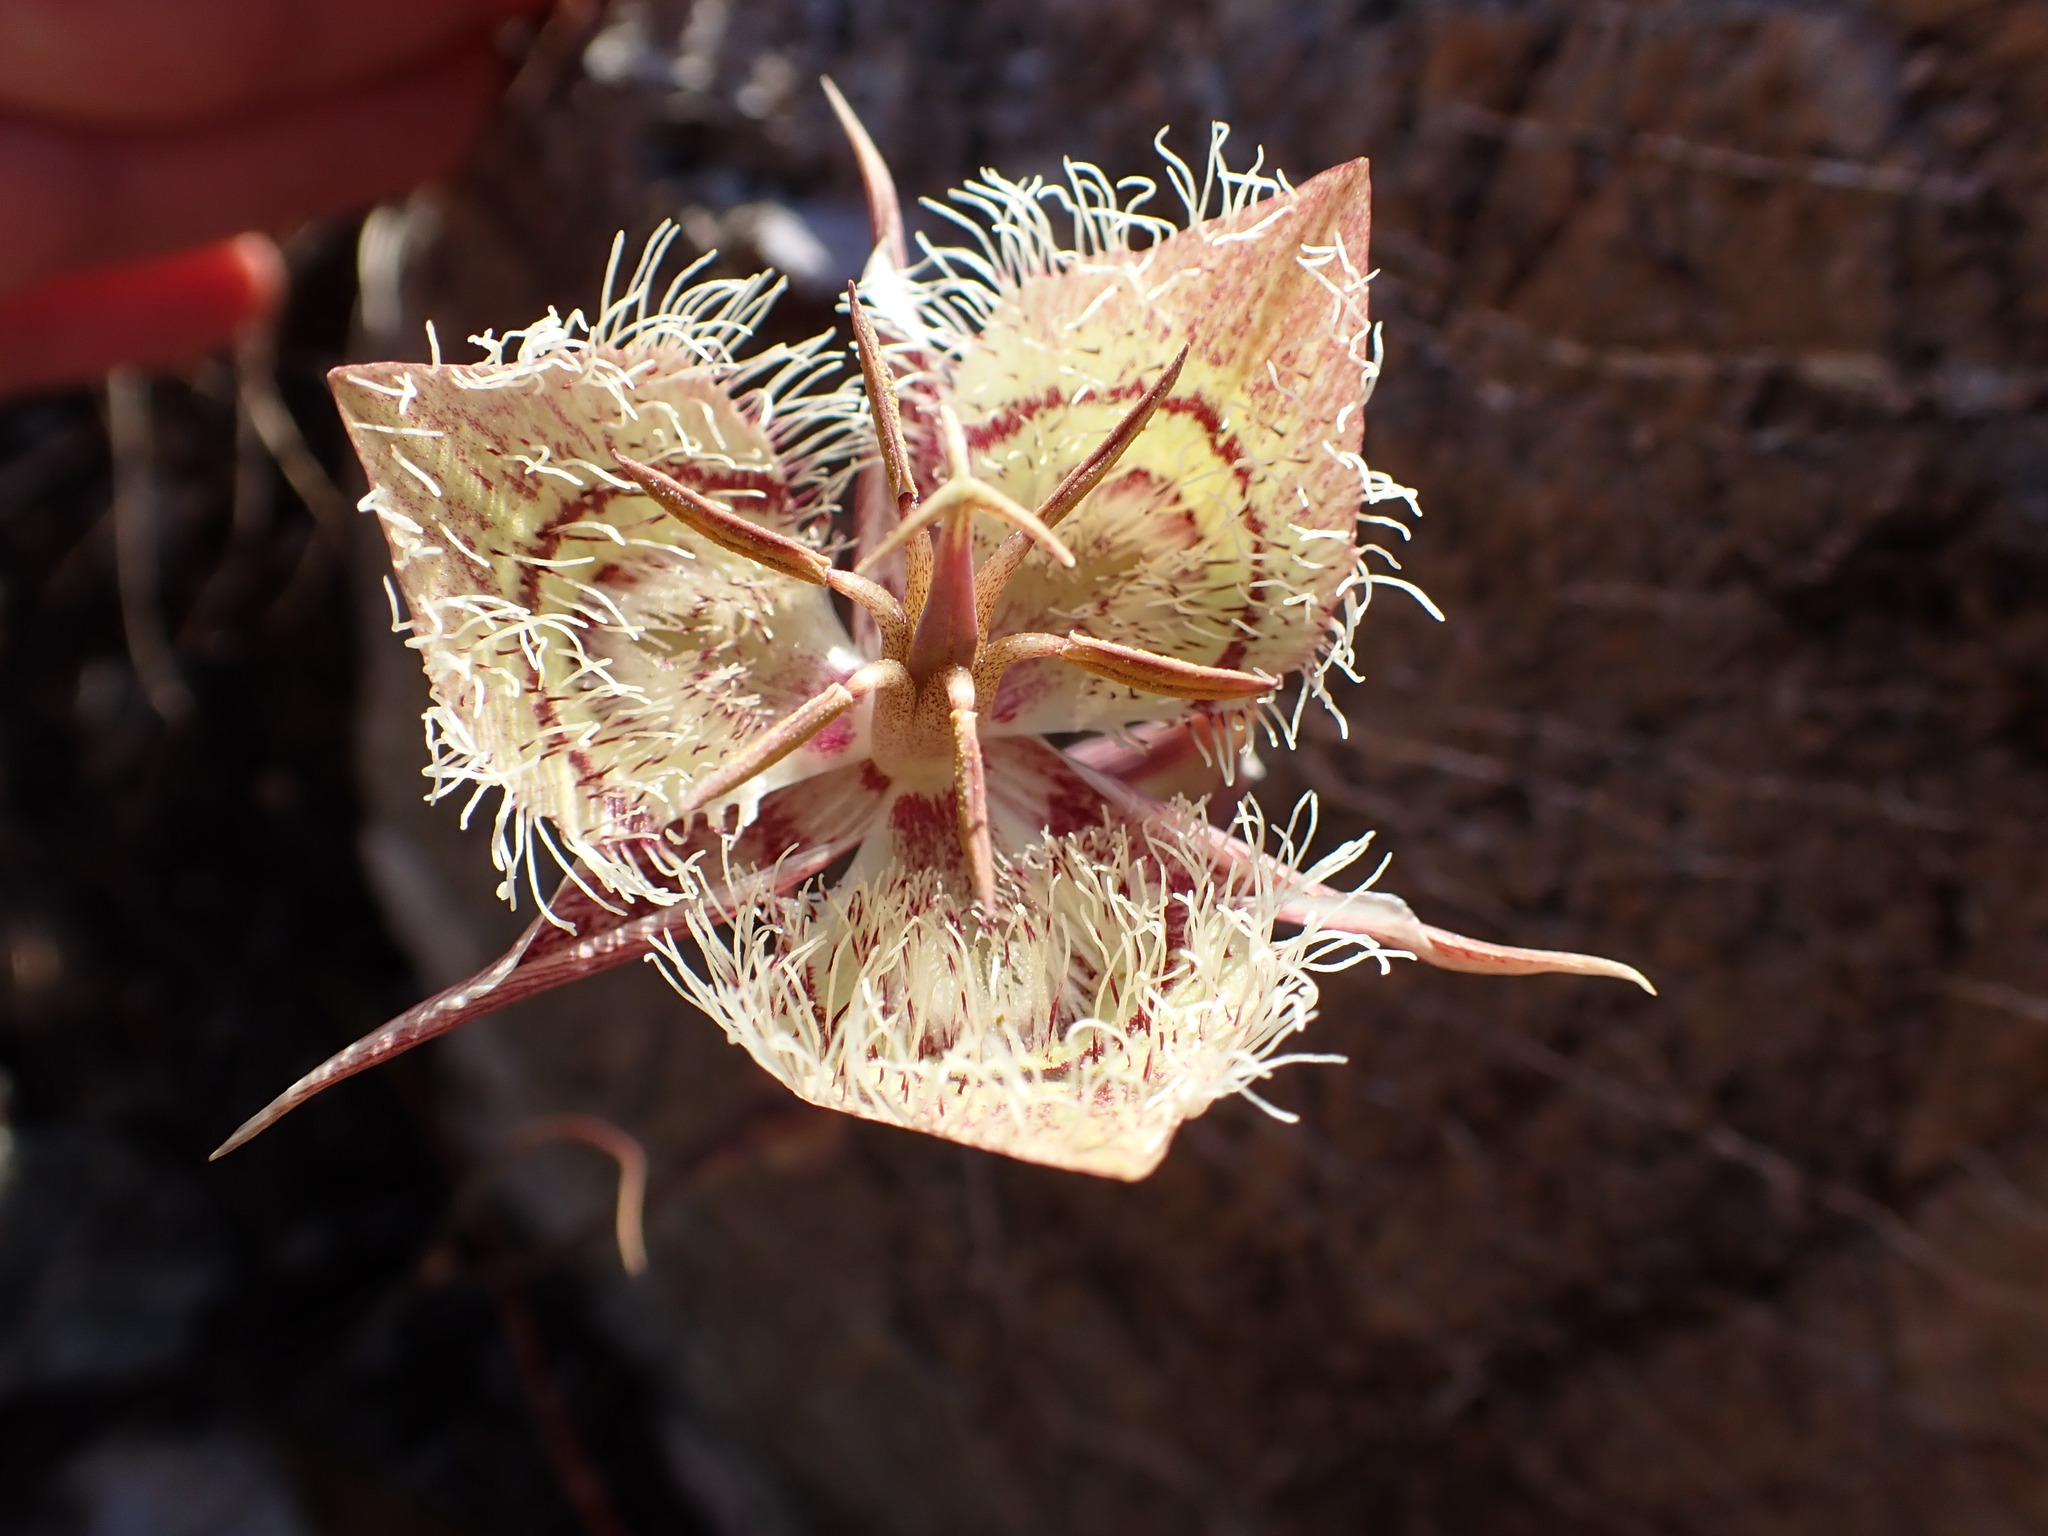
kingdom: Plantae
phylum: Tracheophyta
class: Liliopsida
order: Liliales
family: Liliaceae
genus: Calochortus
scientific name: Calochortus tiburonensis
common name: Tiburon mariposa-lily
